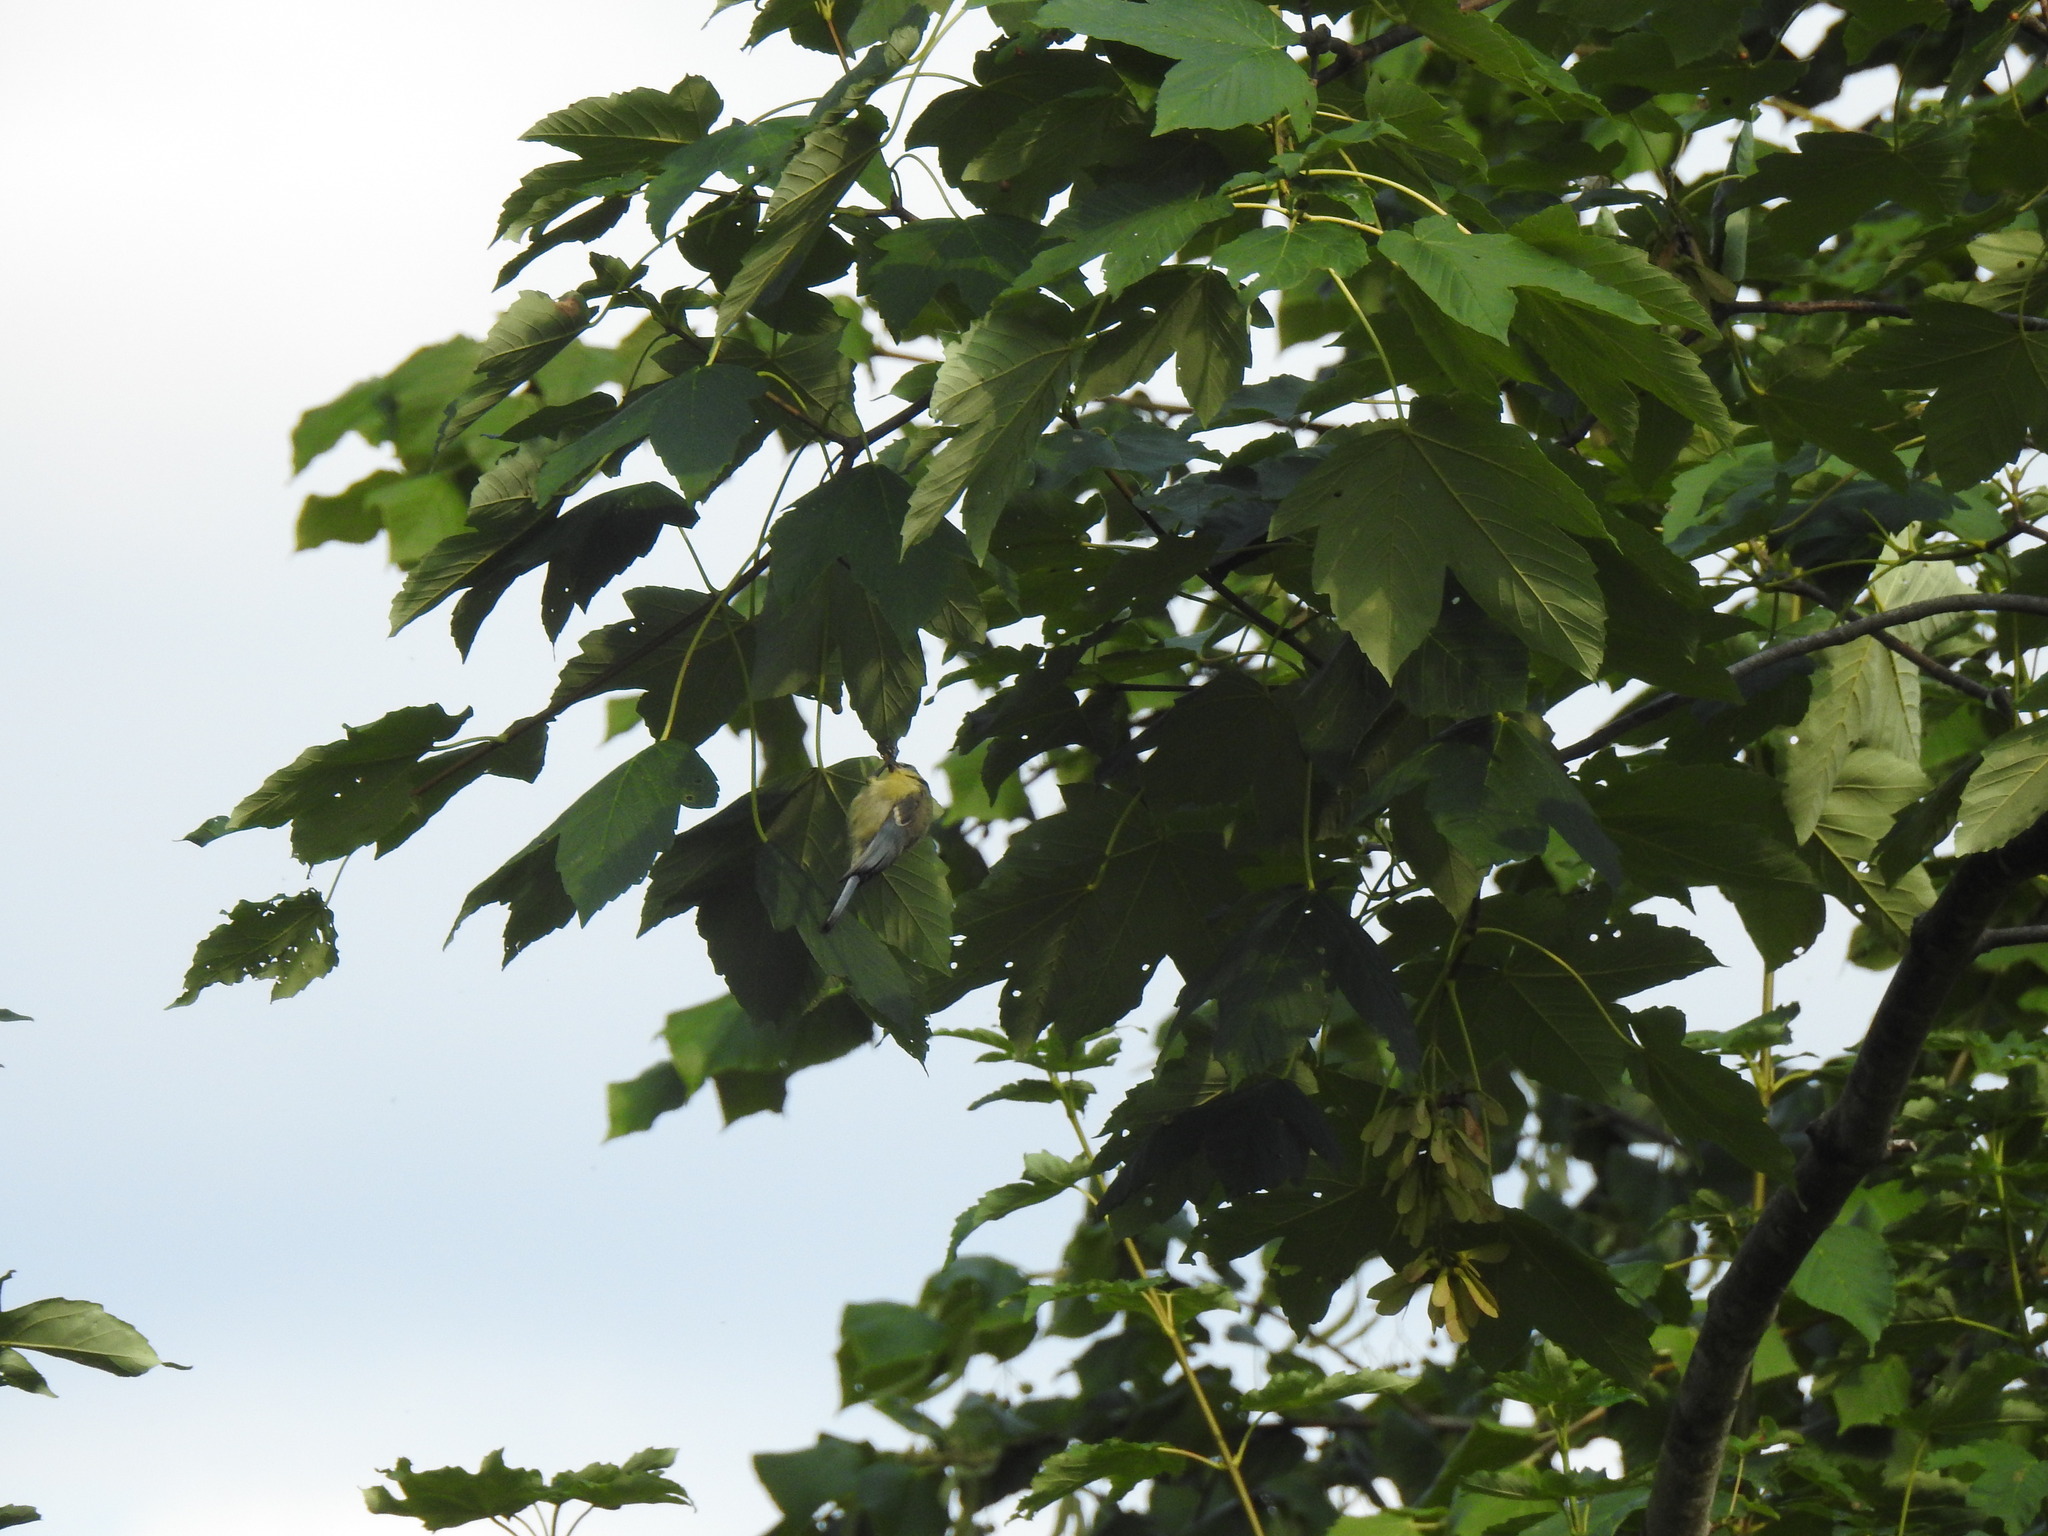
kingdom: Animalia
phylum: Chordata
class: Aves
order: Passeriformes
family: Paridae
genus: Parus
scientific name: Parus major
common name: Great tit
